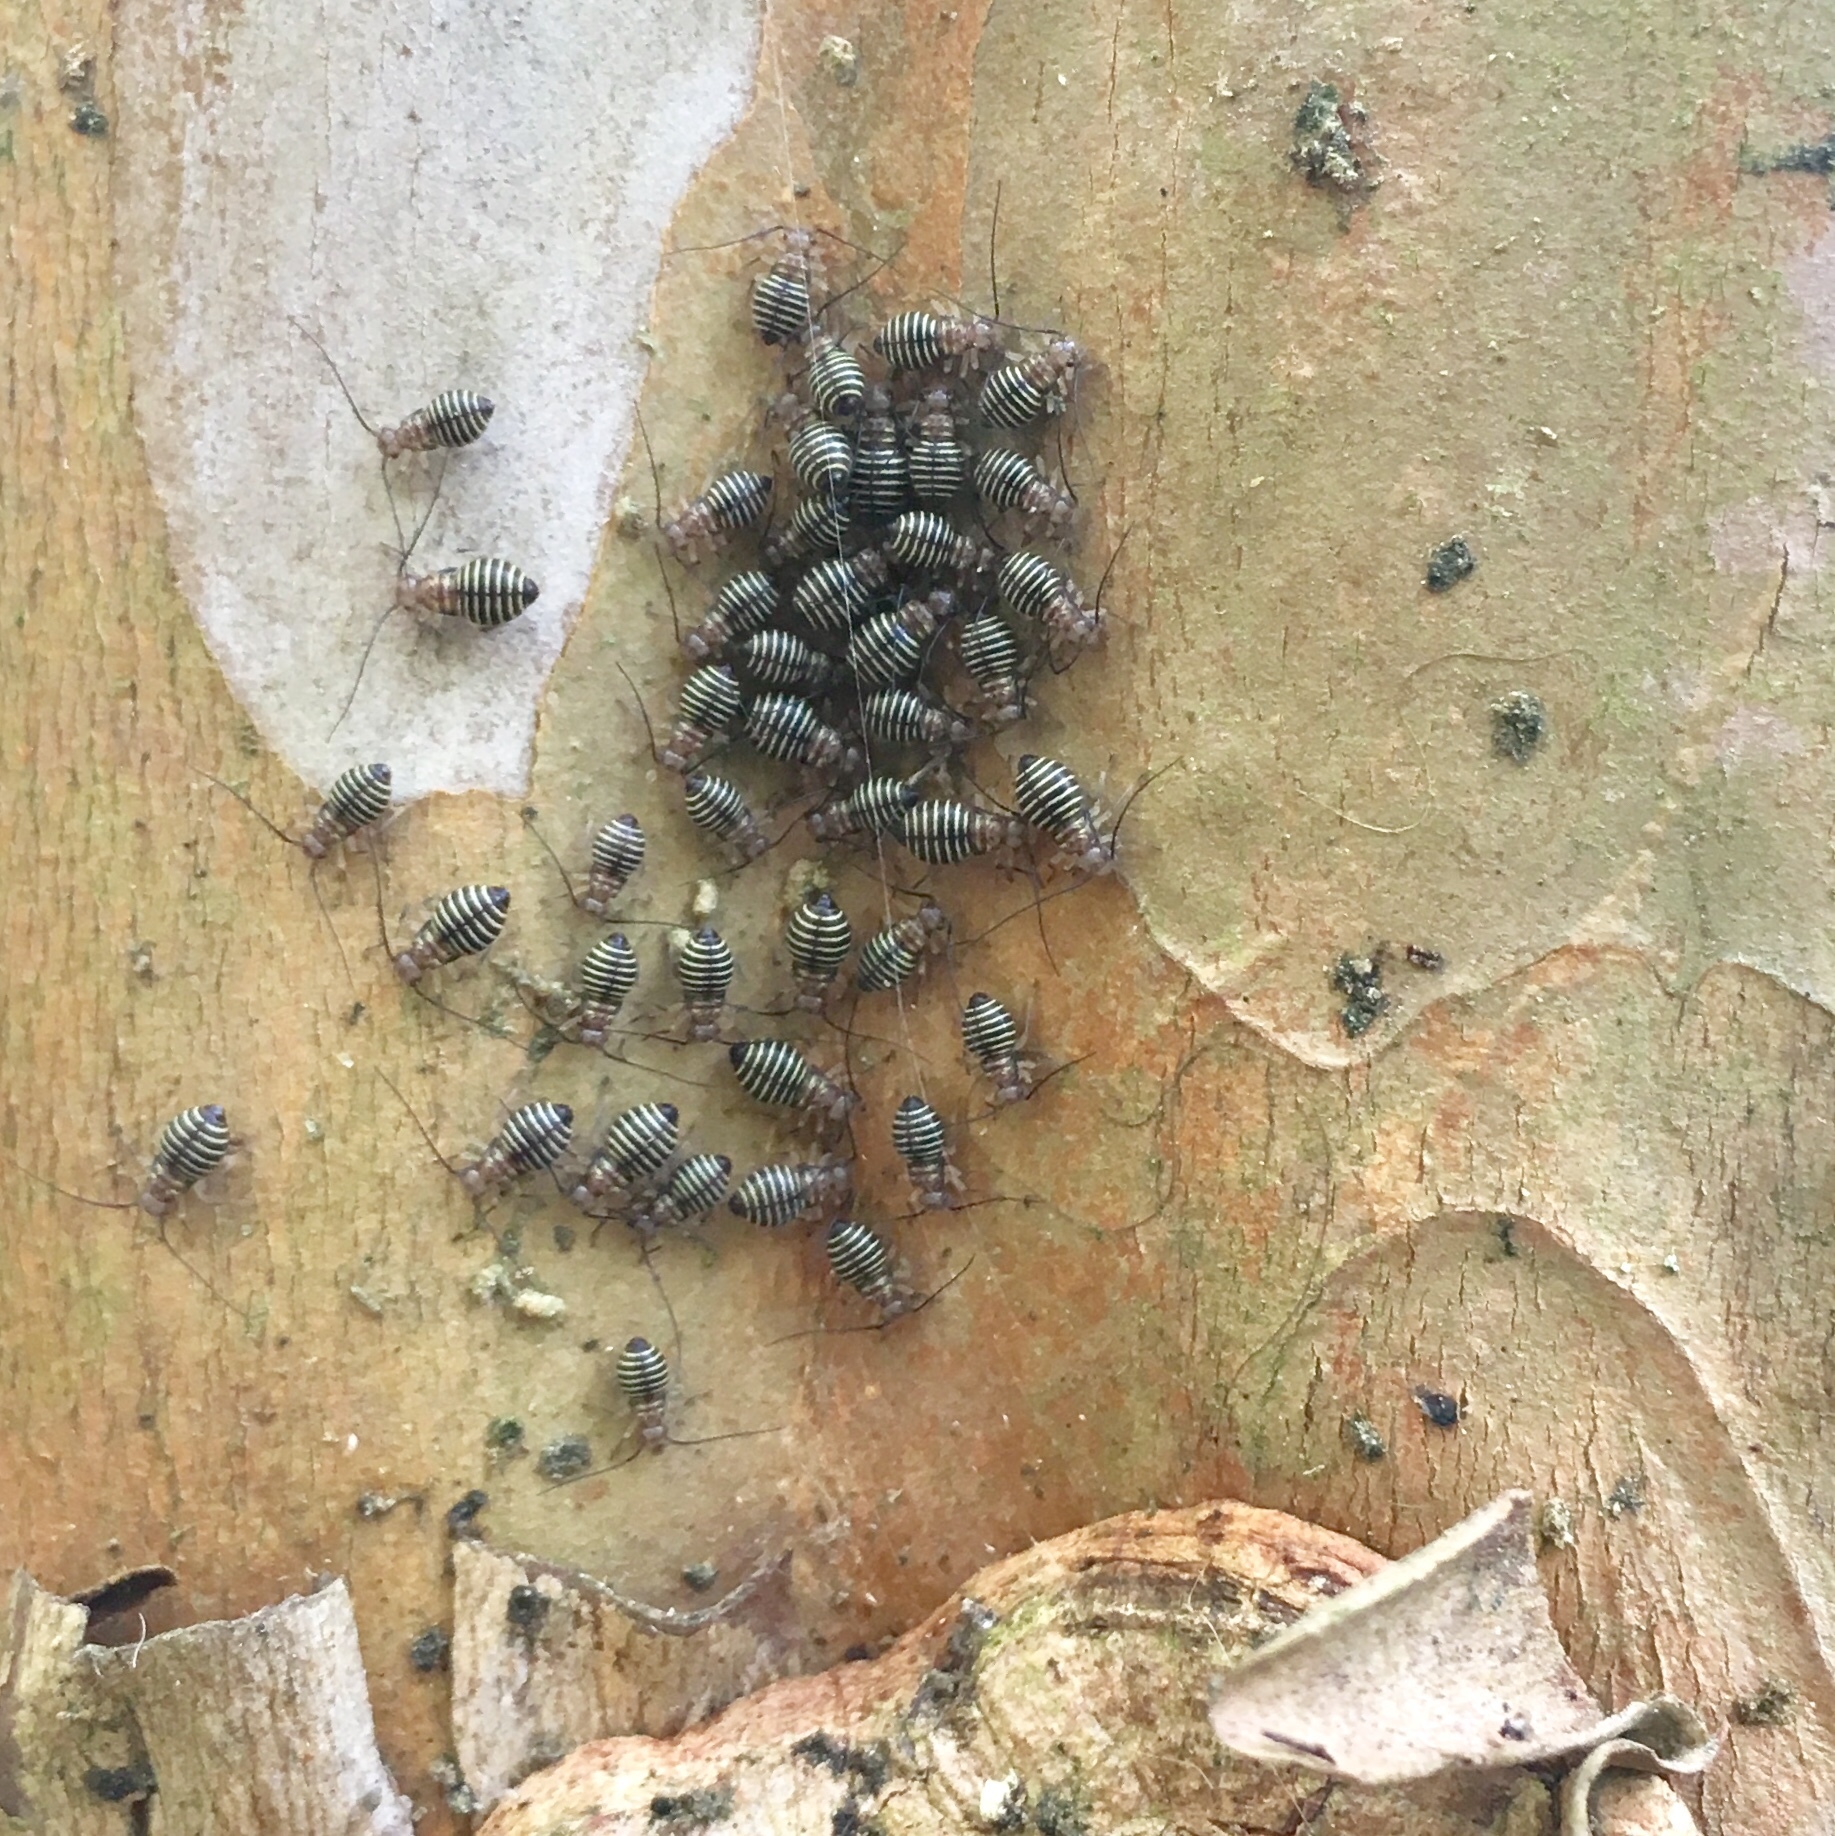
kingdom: Animalia
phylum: Arthropoda
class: Insecta
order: Psocodea
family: Psocidae
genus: Cerastipsocus
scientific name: Cerastipsocus venosus
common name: Tree cattle
